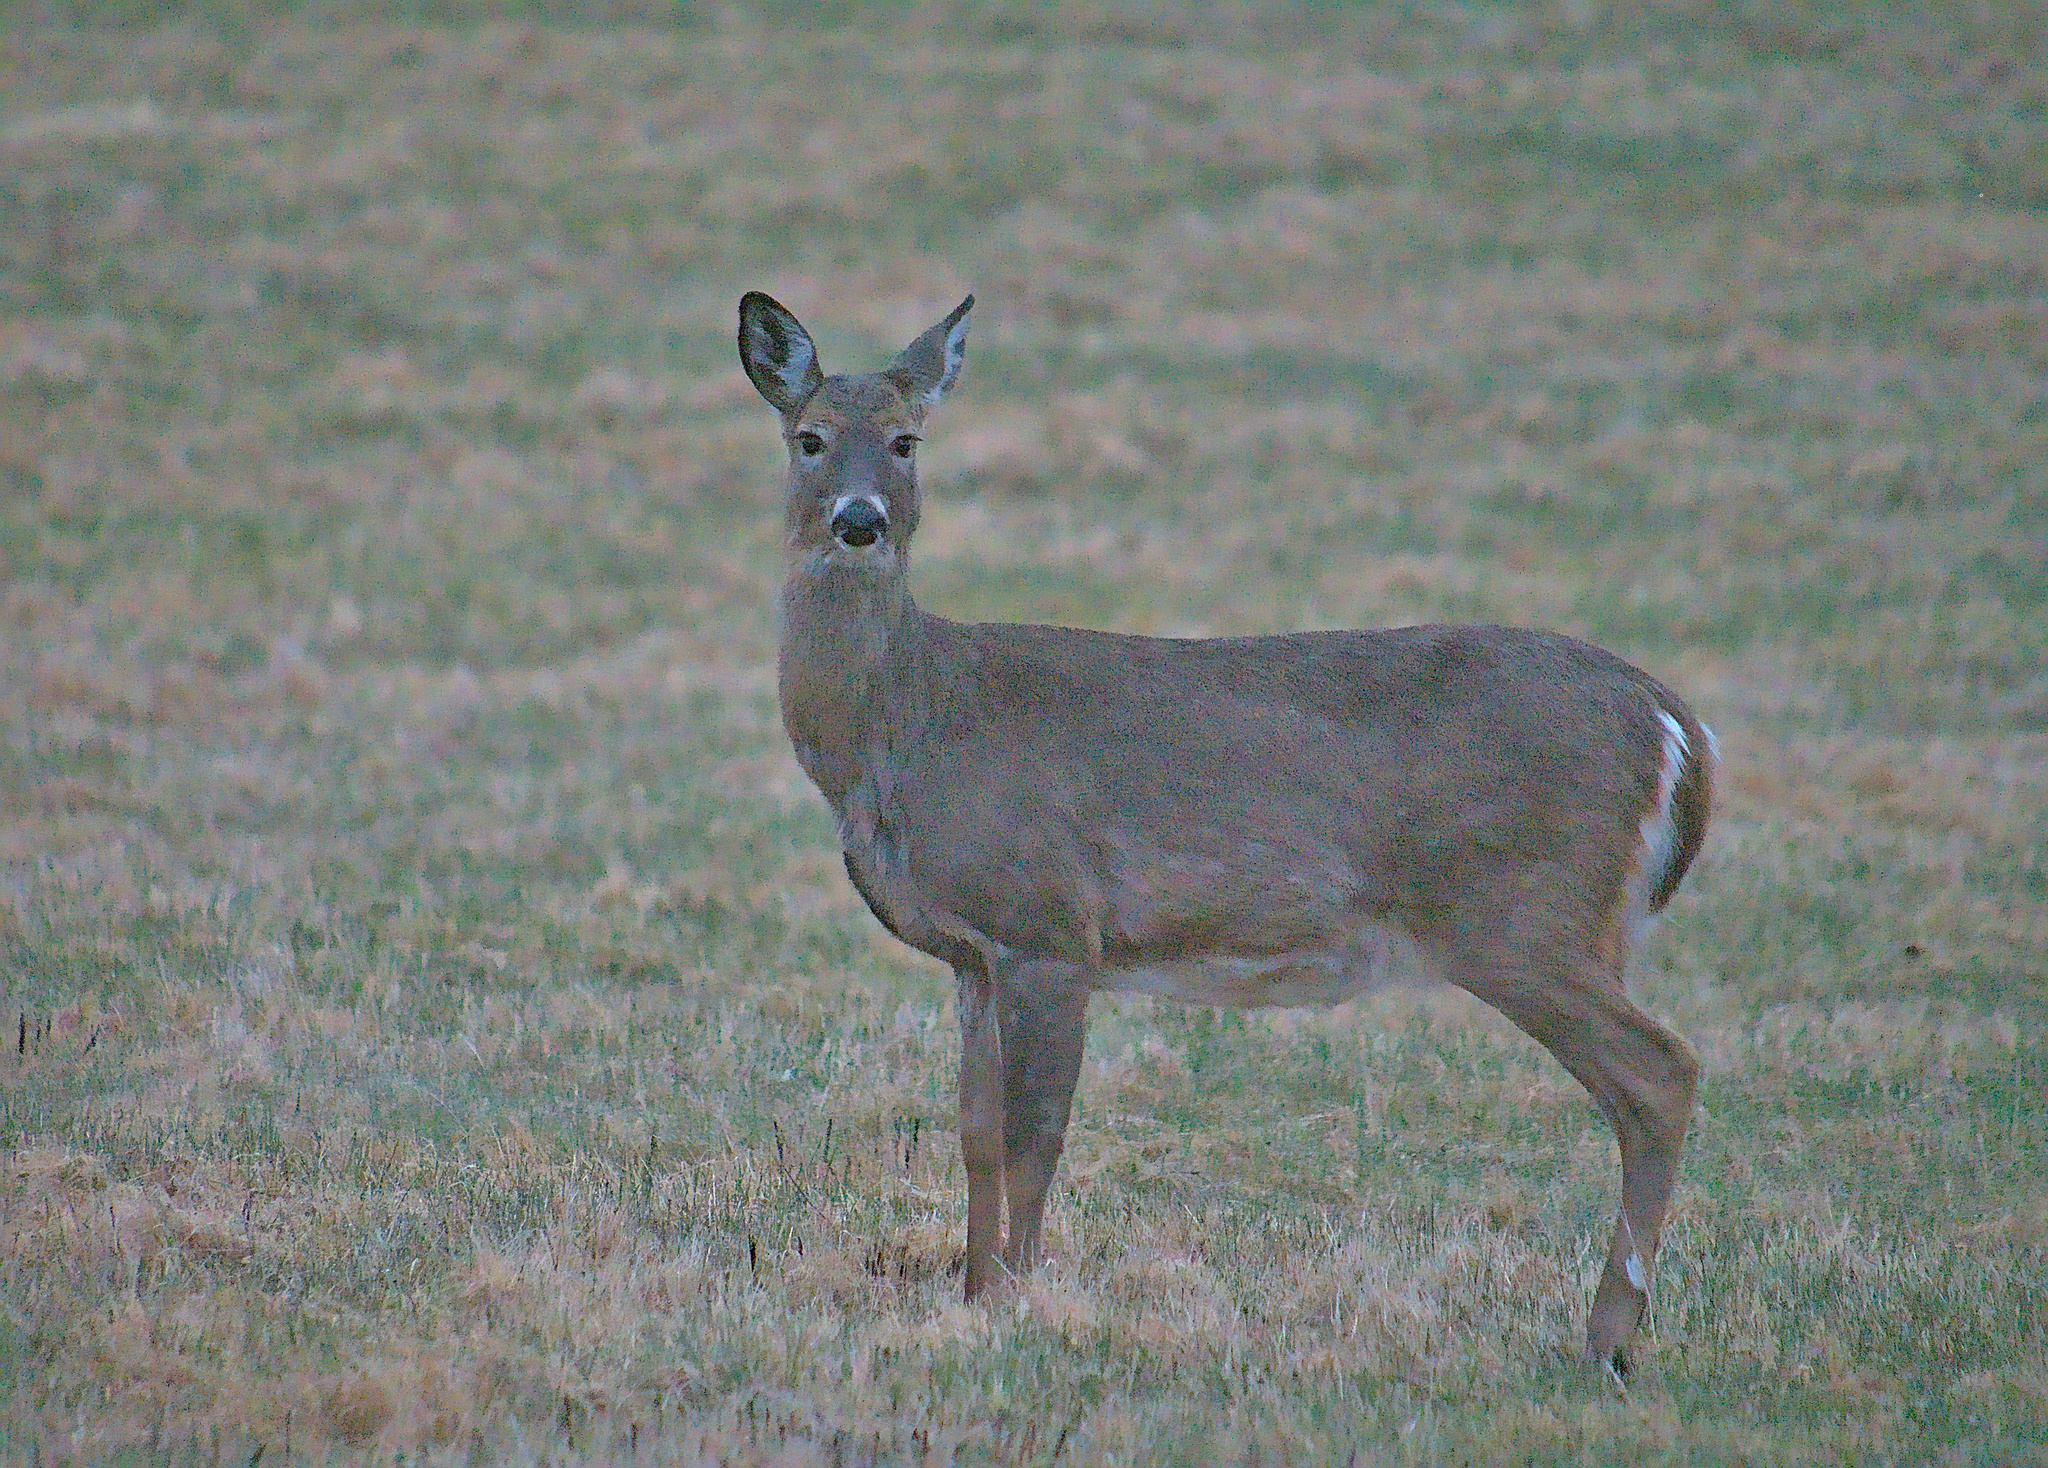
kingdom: Animalia
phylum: Chordata
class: Mammalia
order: Artiodactyla
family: Cervidae
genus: Odocoileus
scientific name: Odocoileus virginianus
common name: White-tailed deer
